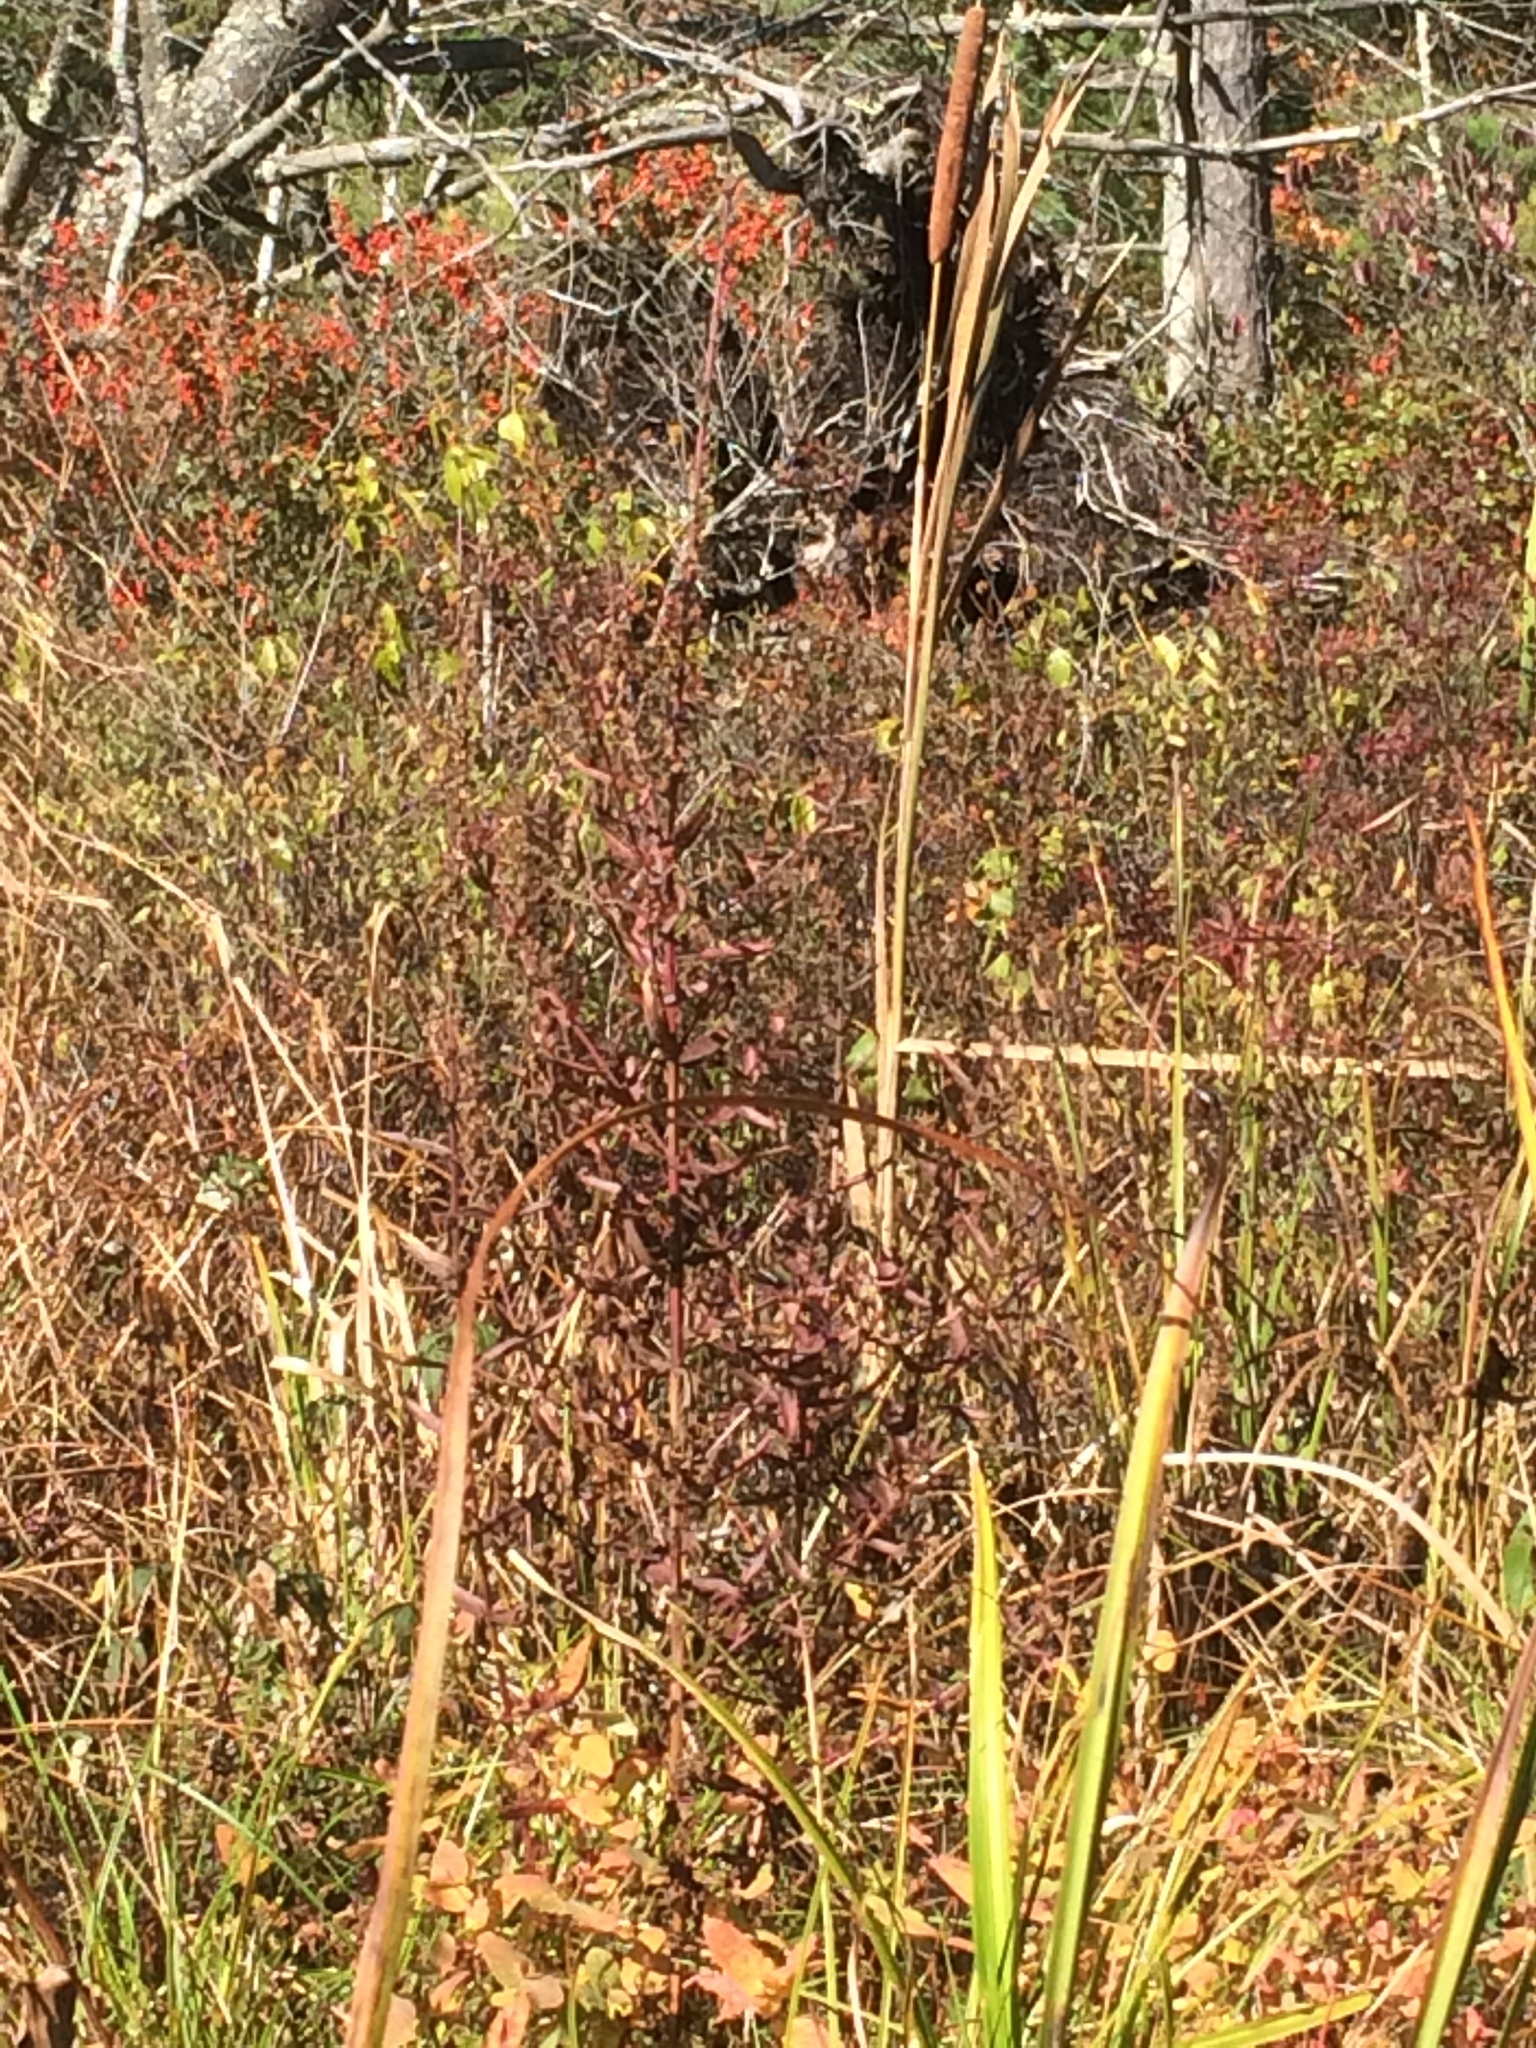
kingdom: Plantae
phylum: Tracheophyta
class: Magnoliopsida
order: Myrtales
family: Lythraceae
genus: Lythrum
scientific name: Lythrum salicaria
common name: Purple loosestrife
